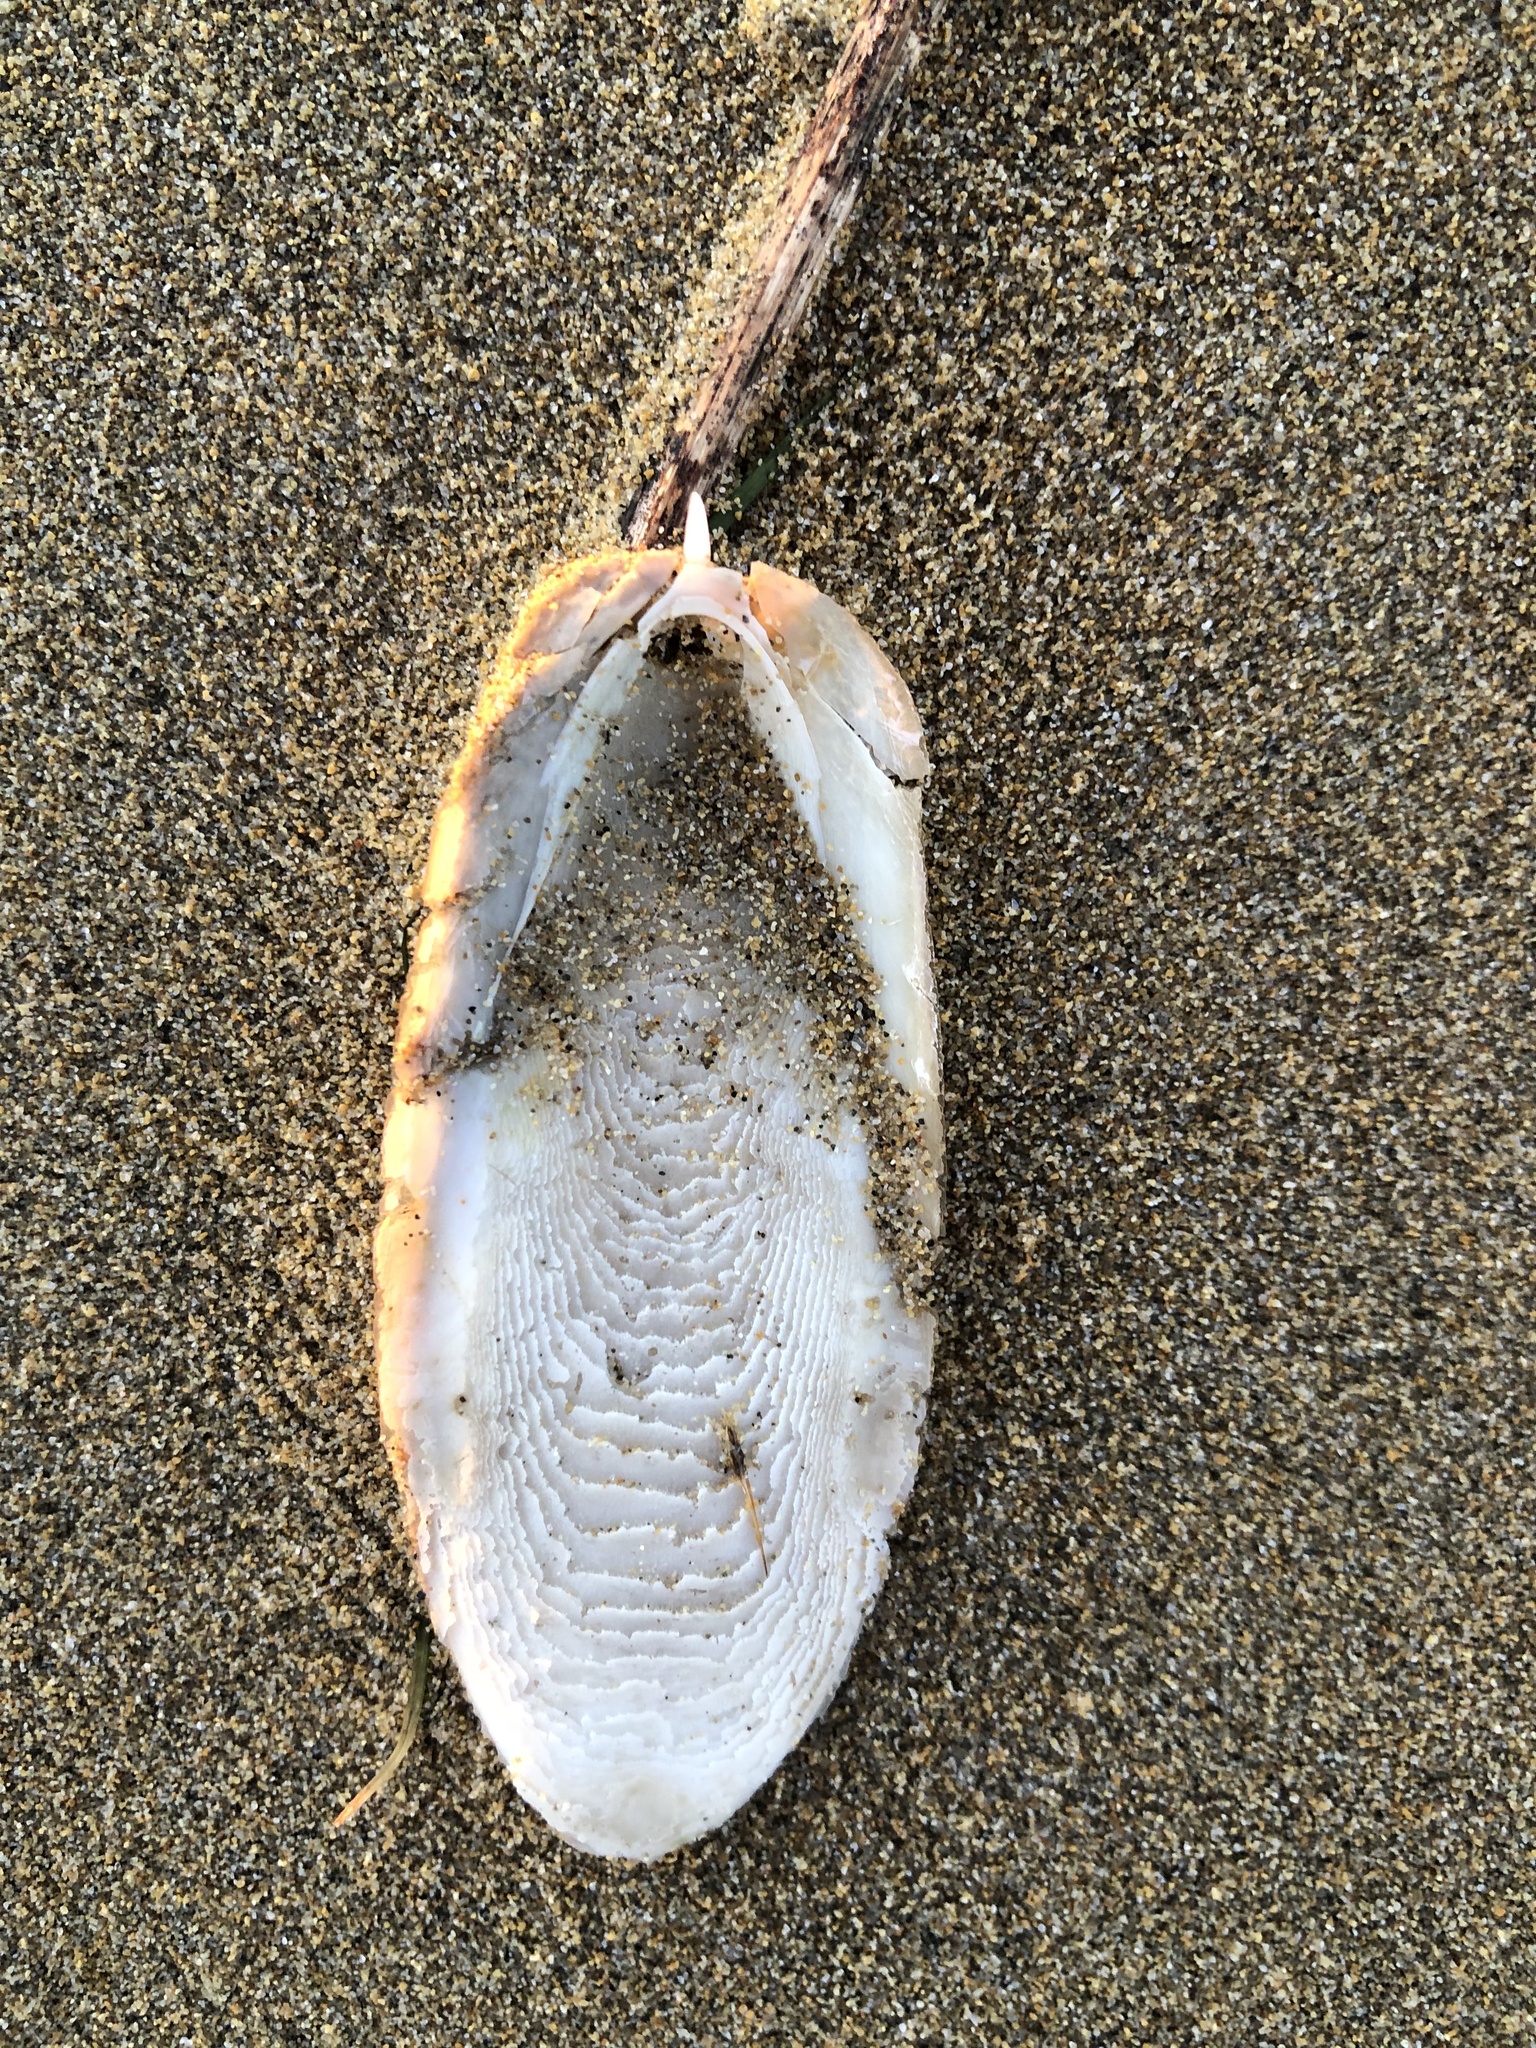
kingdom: Animalia
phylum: Mollusca
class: Cephalopoda
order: Sepiida
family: Sepiidae
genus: Sepia
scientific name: Sepia officinalis
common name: Common cuttlefish
